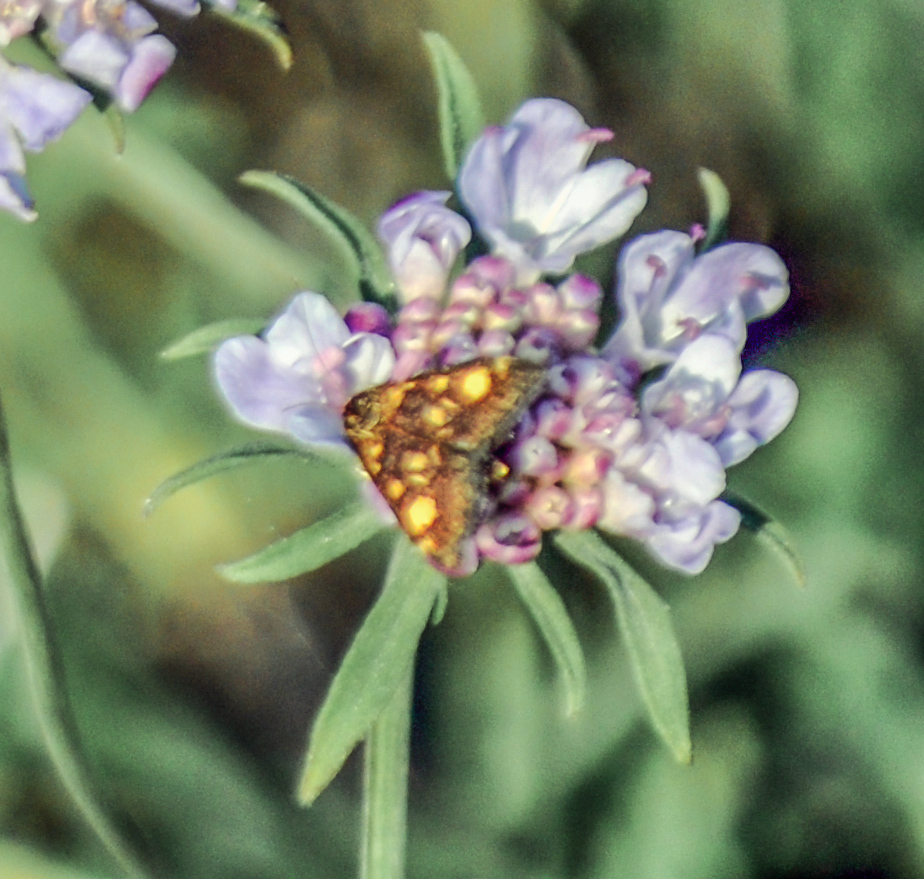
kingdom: Animalia
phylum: Arthropoda
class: Insecta
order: Lepidoptera
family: Crambidae
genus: Pyrausta
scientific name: Pyrausta aurata
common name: Small purple & gold
